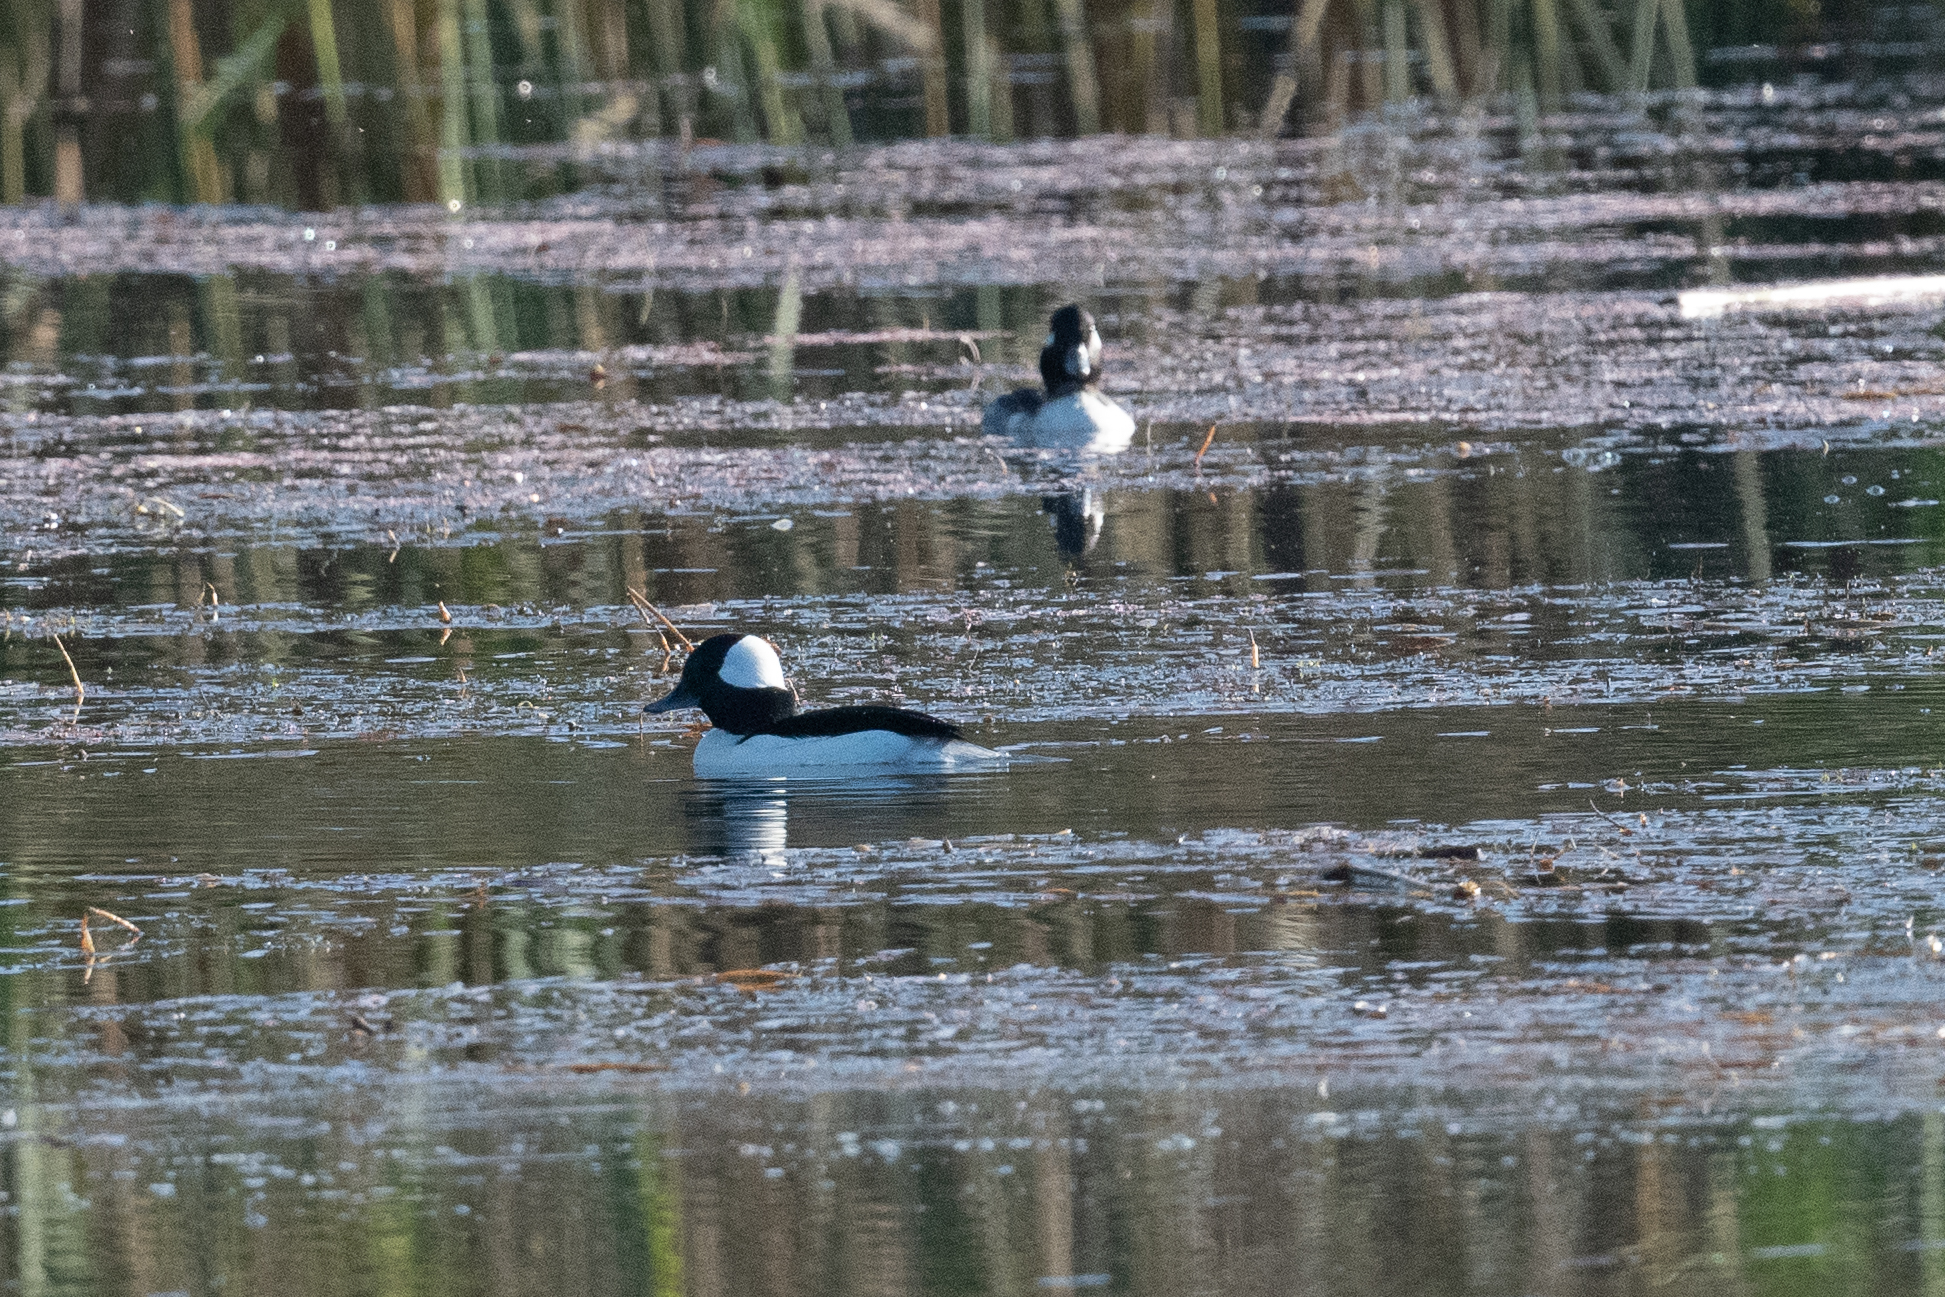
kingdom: Animalia
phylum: Chordata
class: Aves
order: Anseriformes
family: Anatidae
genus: Bucephala
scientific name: Bucephala albeola
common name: Bufflehead
